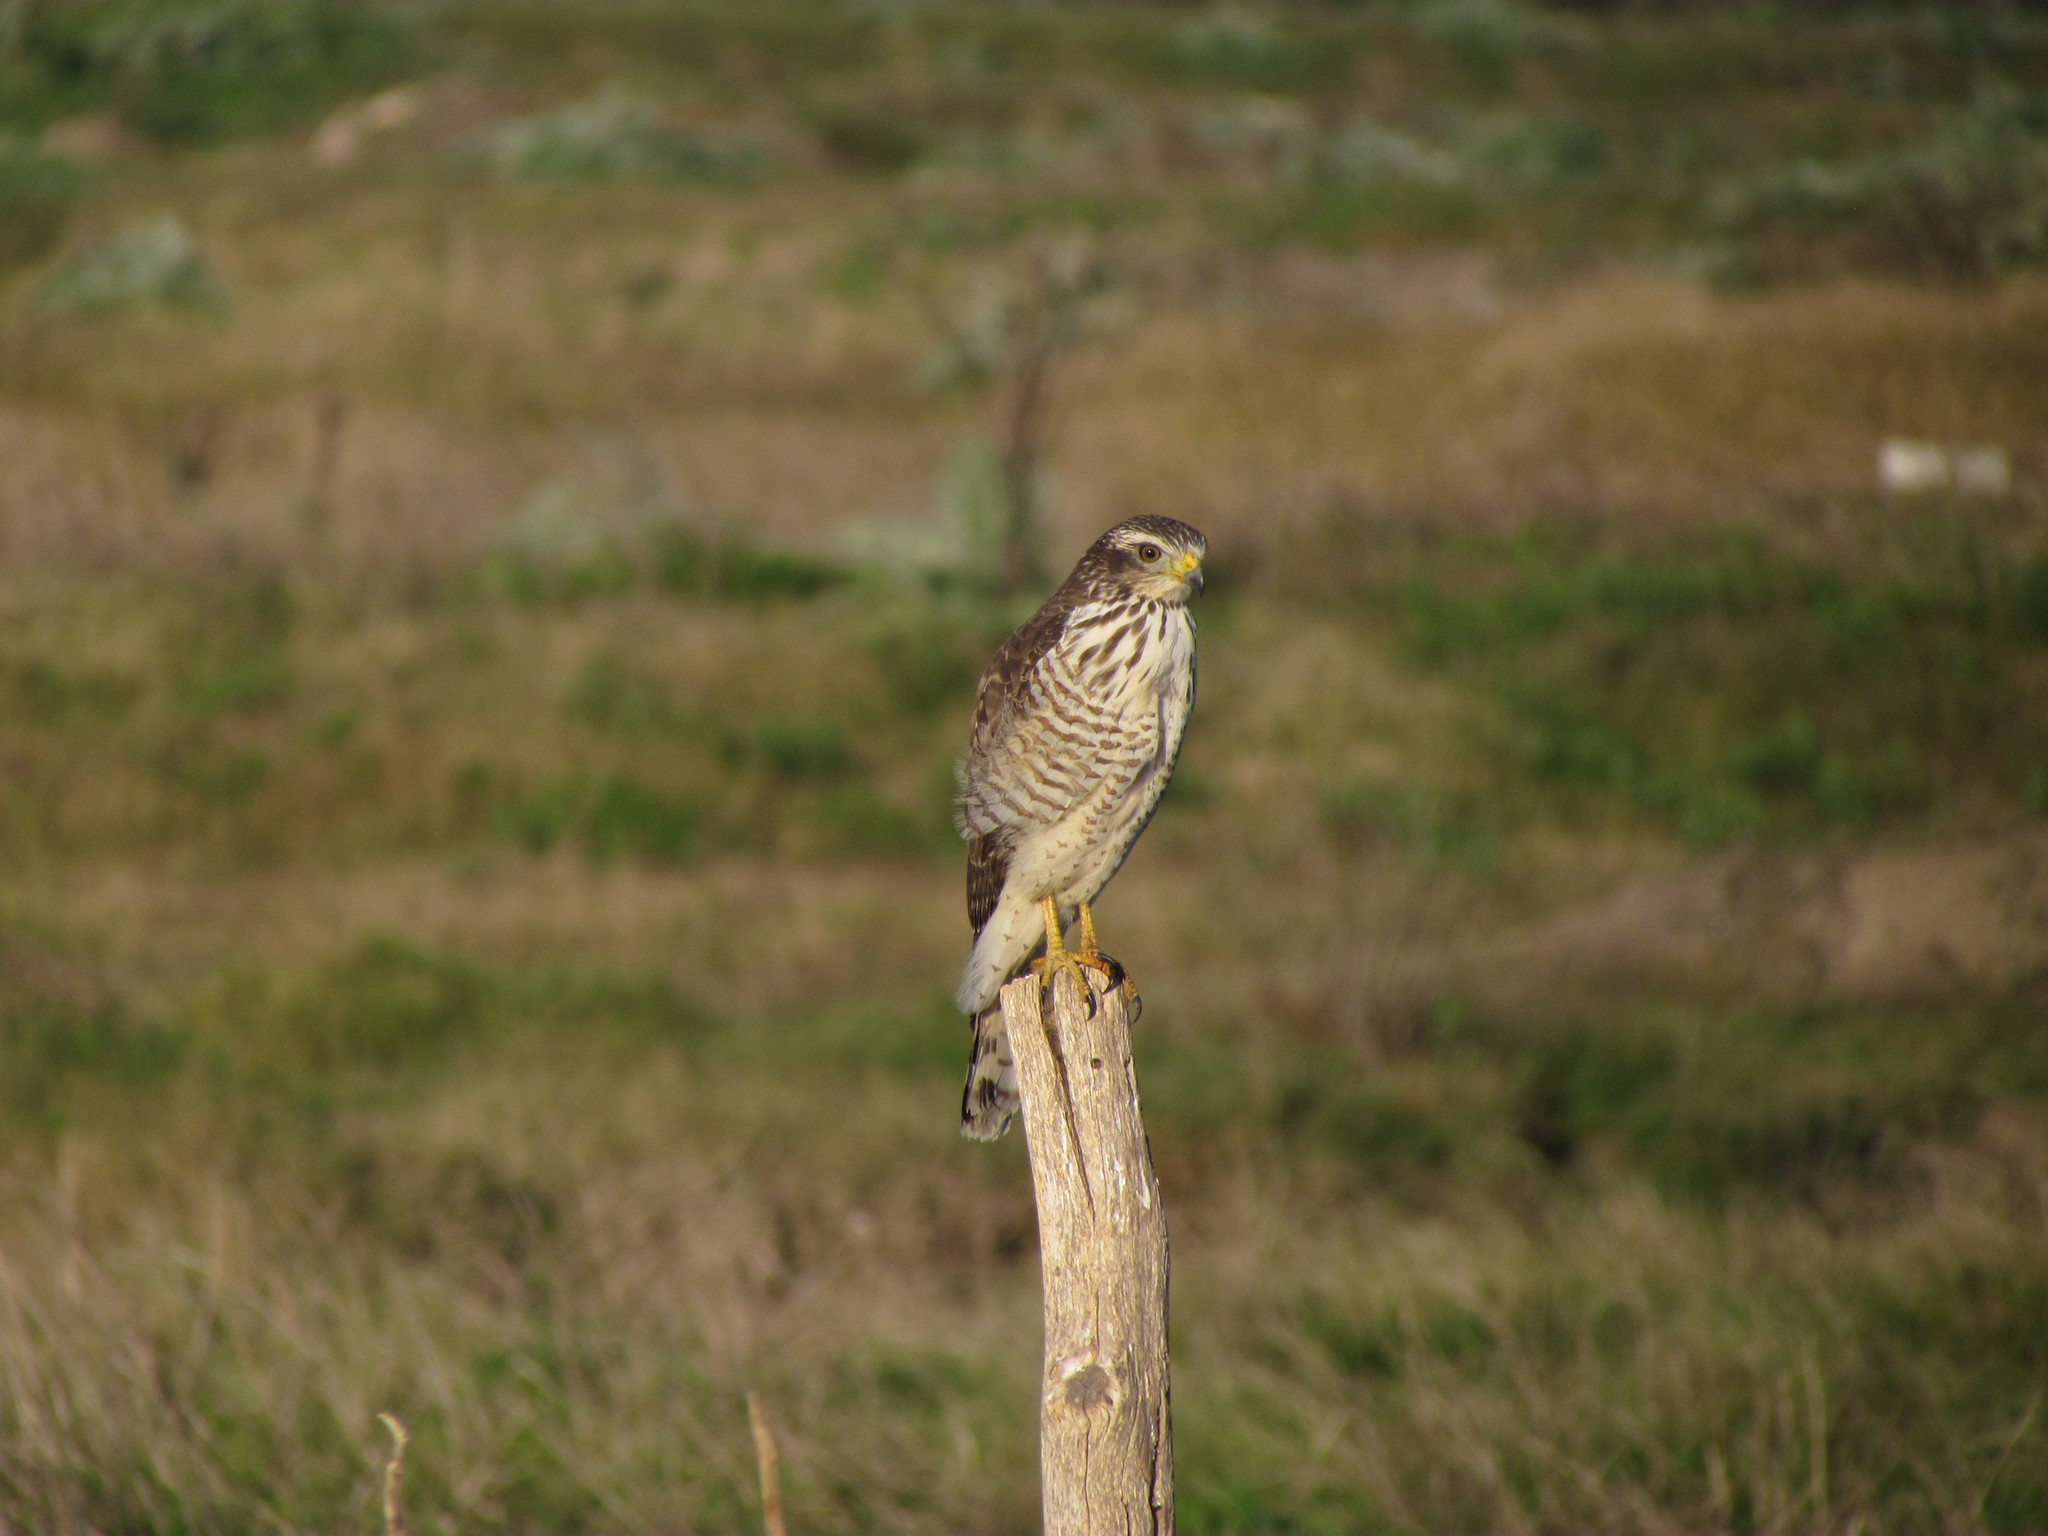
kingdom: Animalia
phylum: Chordata
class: Aves
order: Accipitriformes
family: Accipitridae
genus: Rupornis
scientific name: Rupornis magnirostris
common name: Roadside hawk
